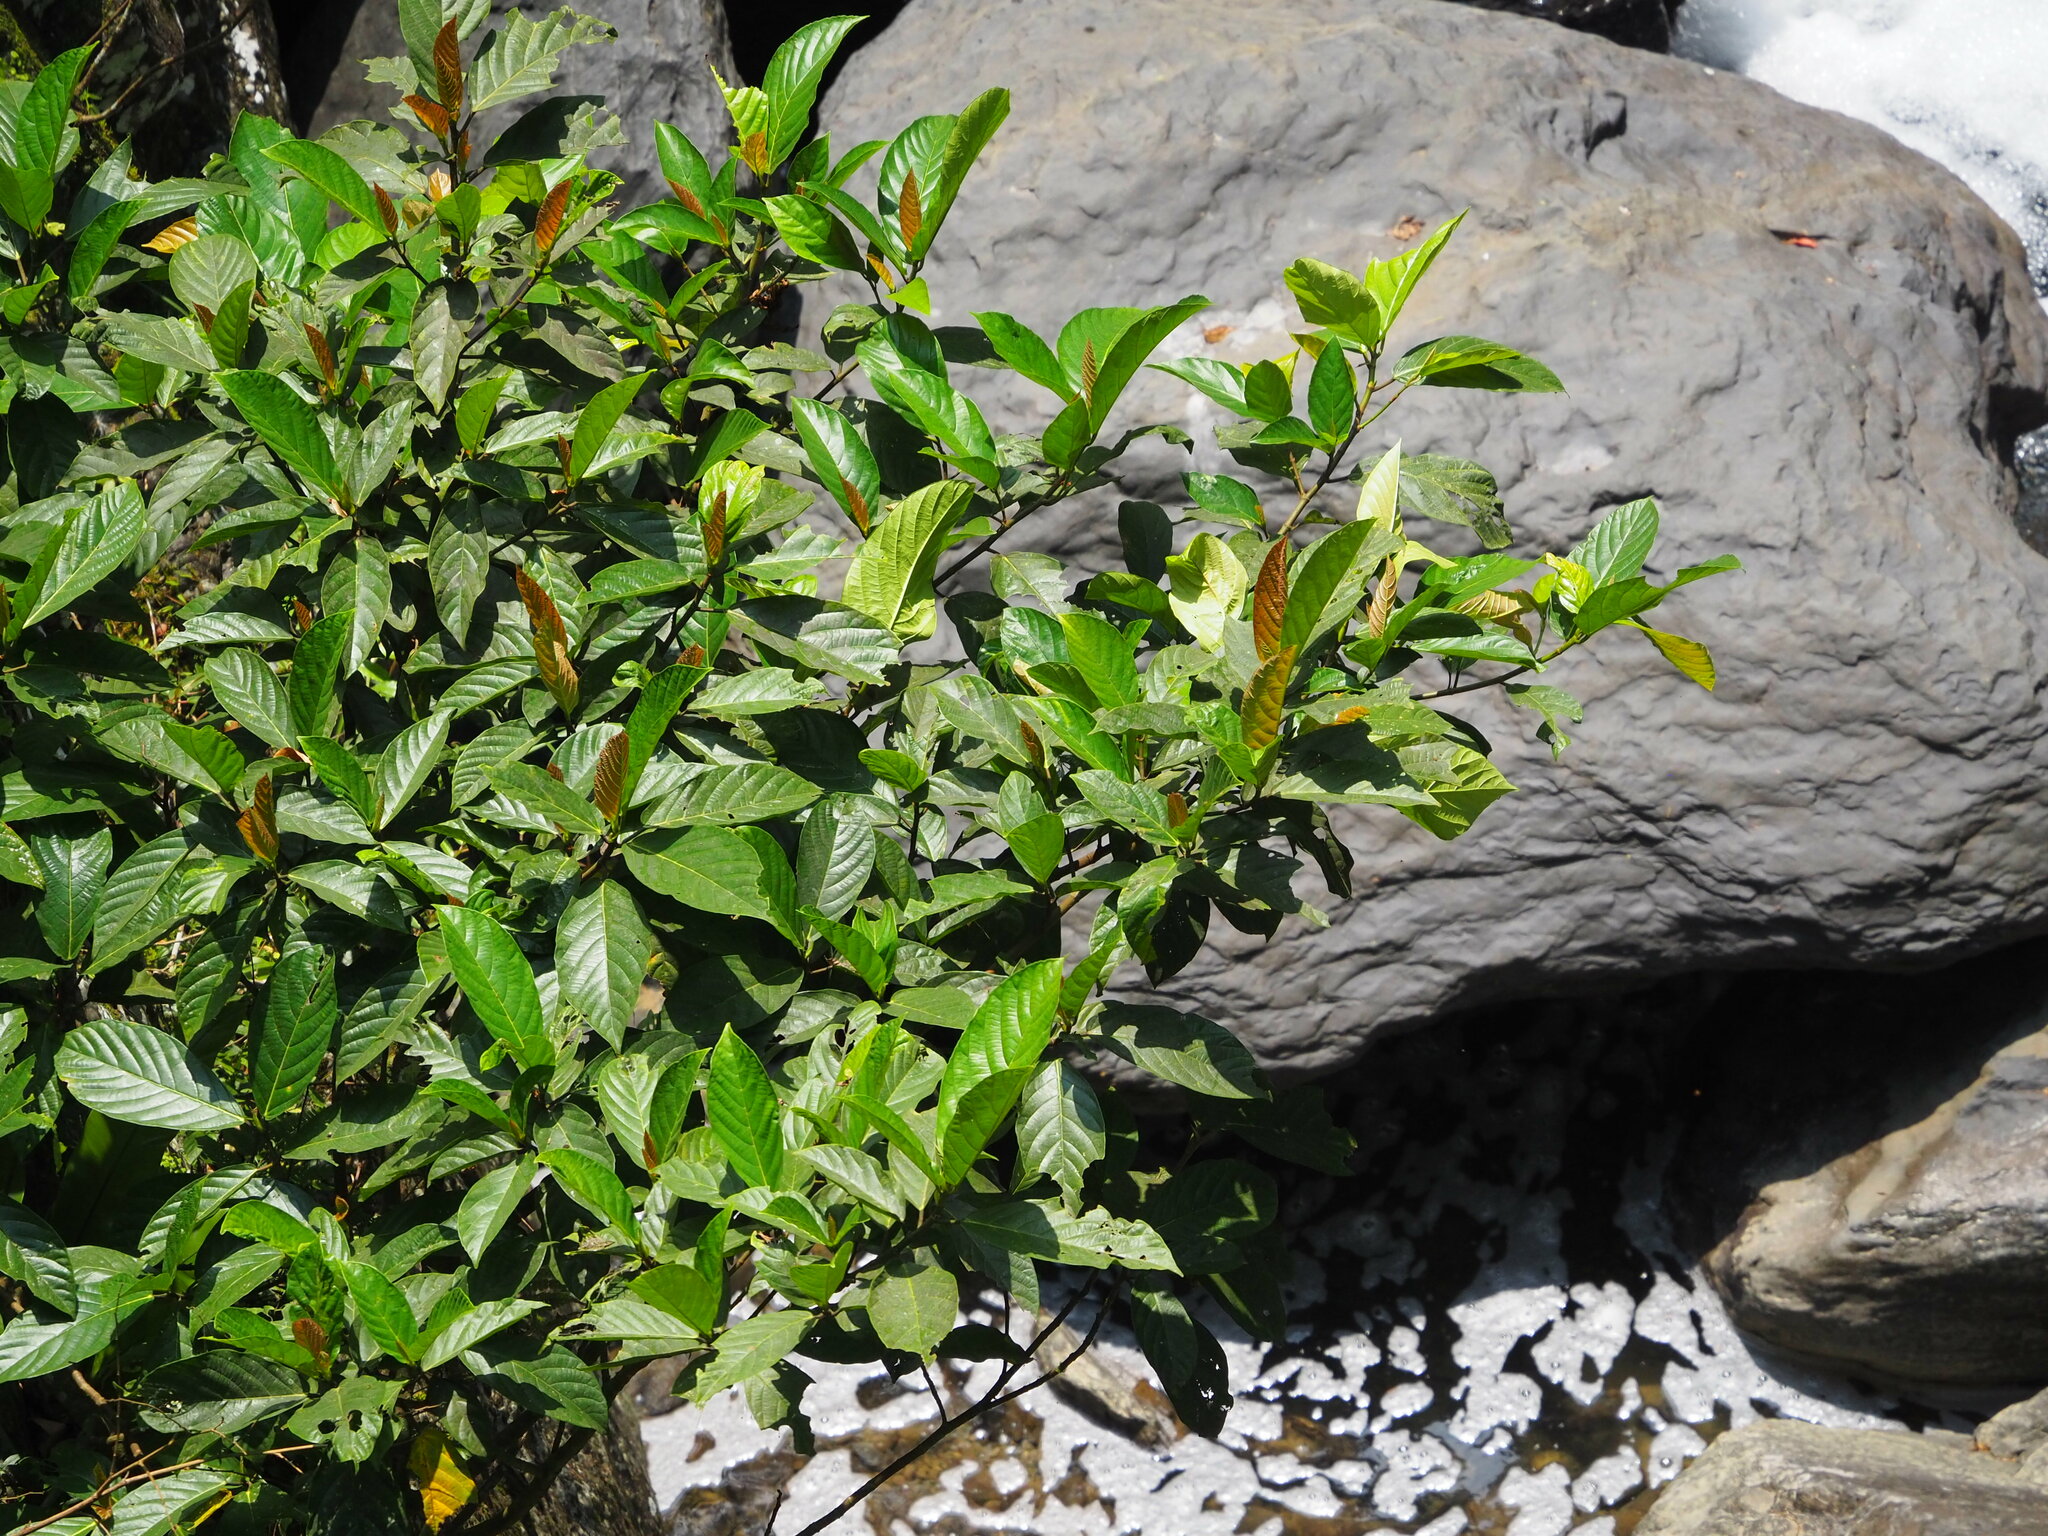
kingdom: Plantae
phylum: Tracheophyta
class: Magnoliopsida
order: Rosales
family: Moraceae
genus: Ficus
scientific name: Ficus benguetensis
